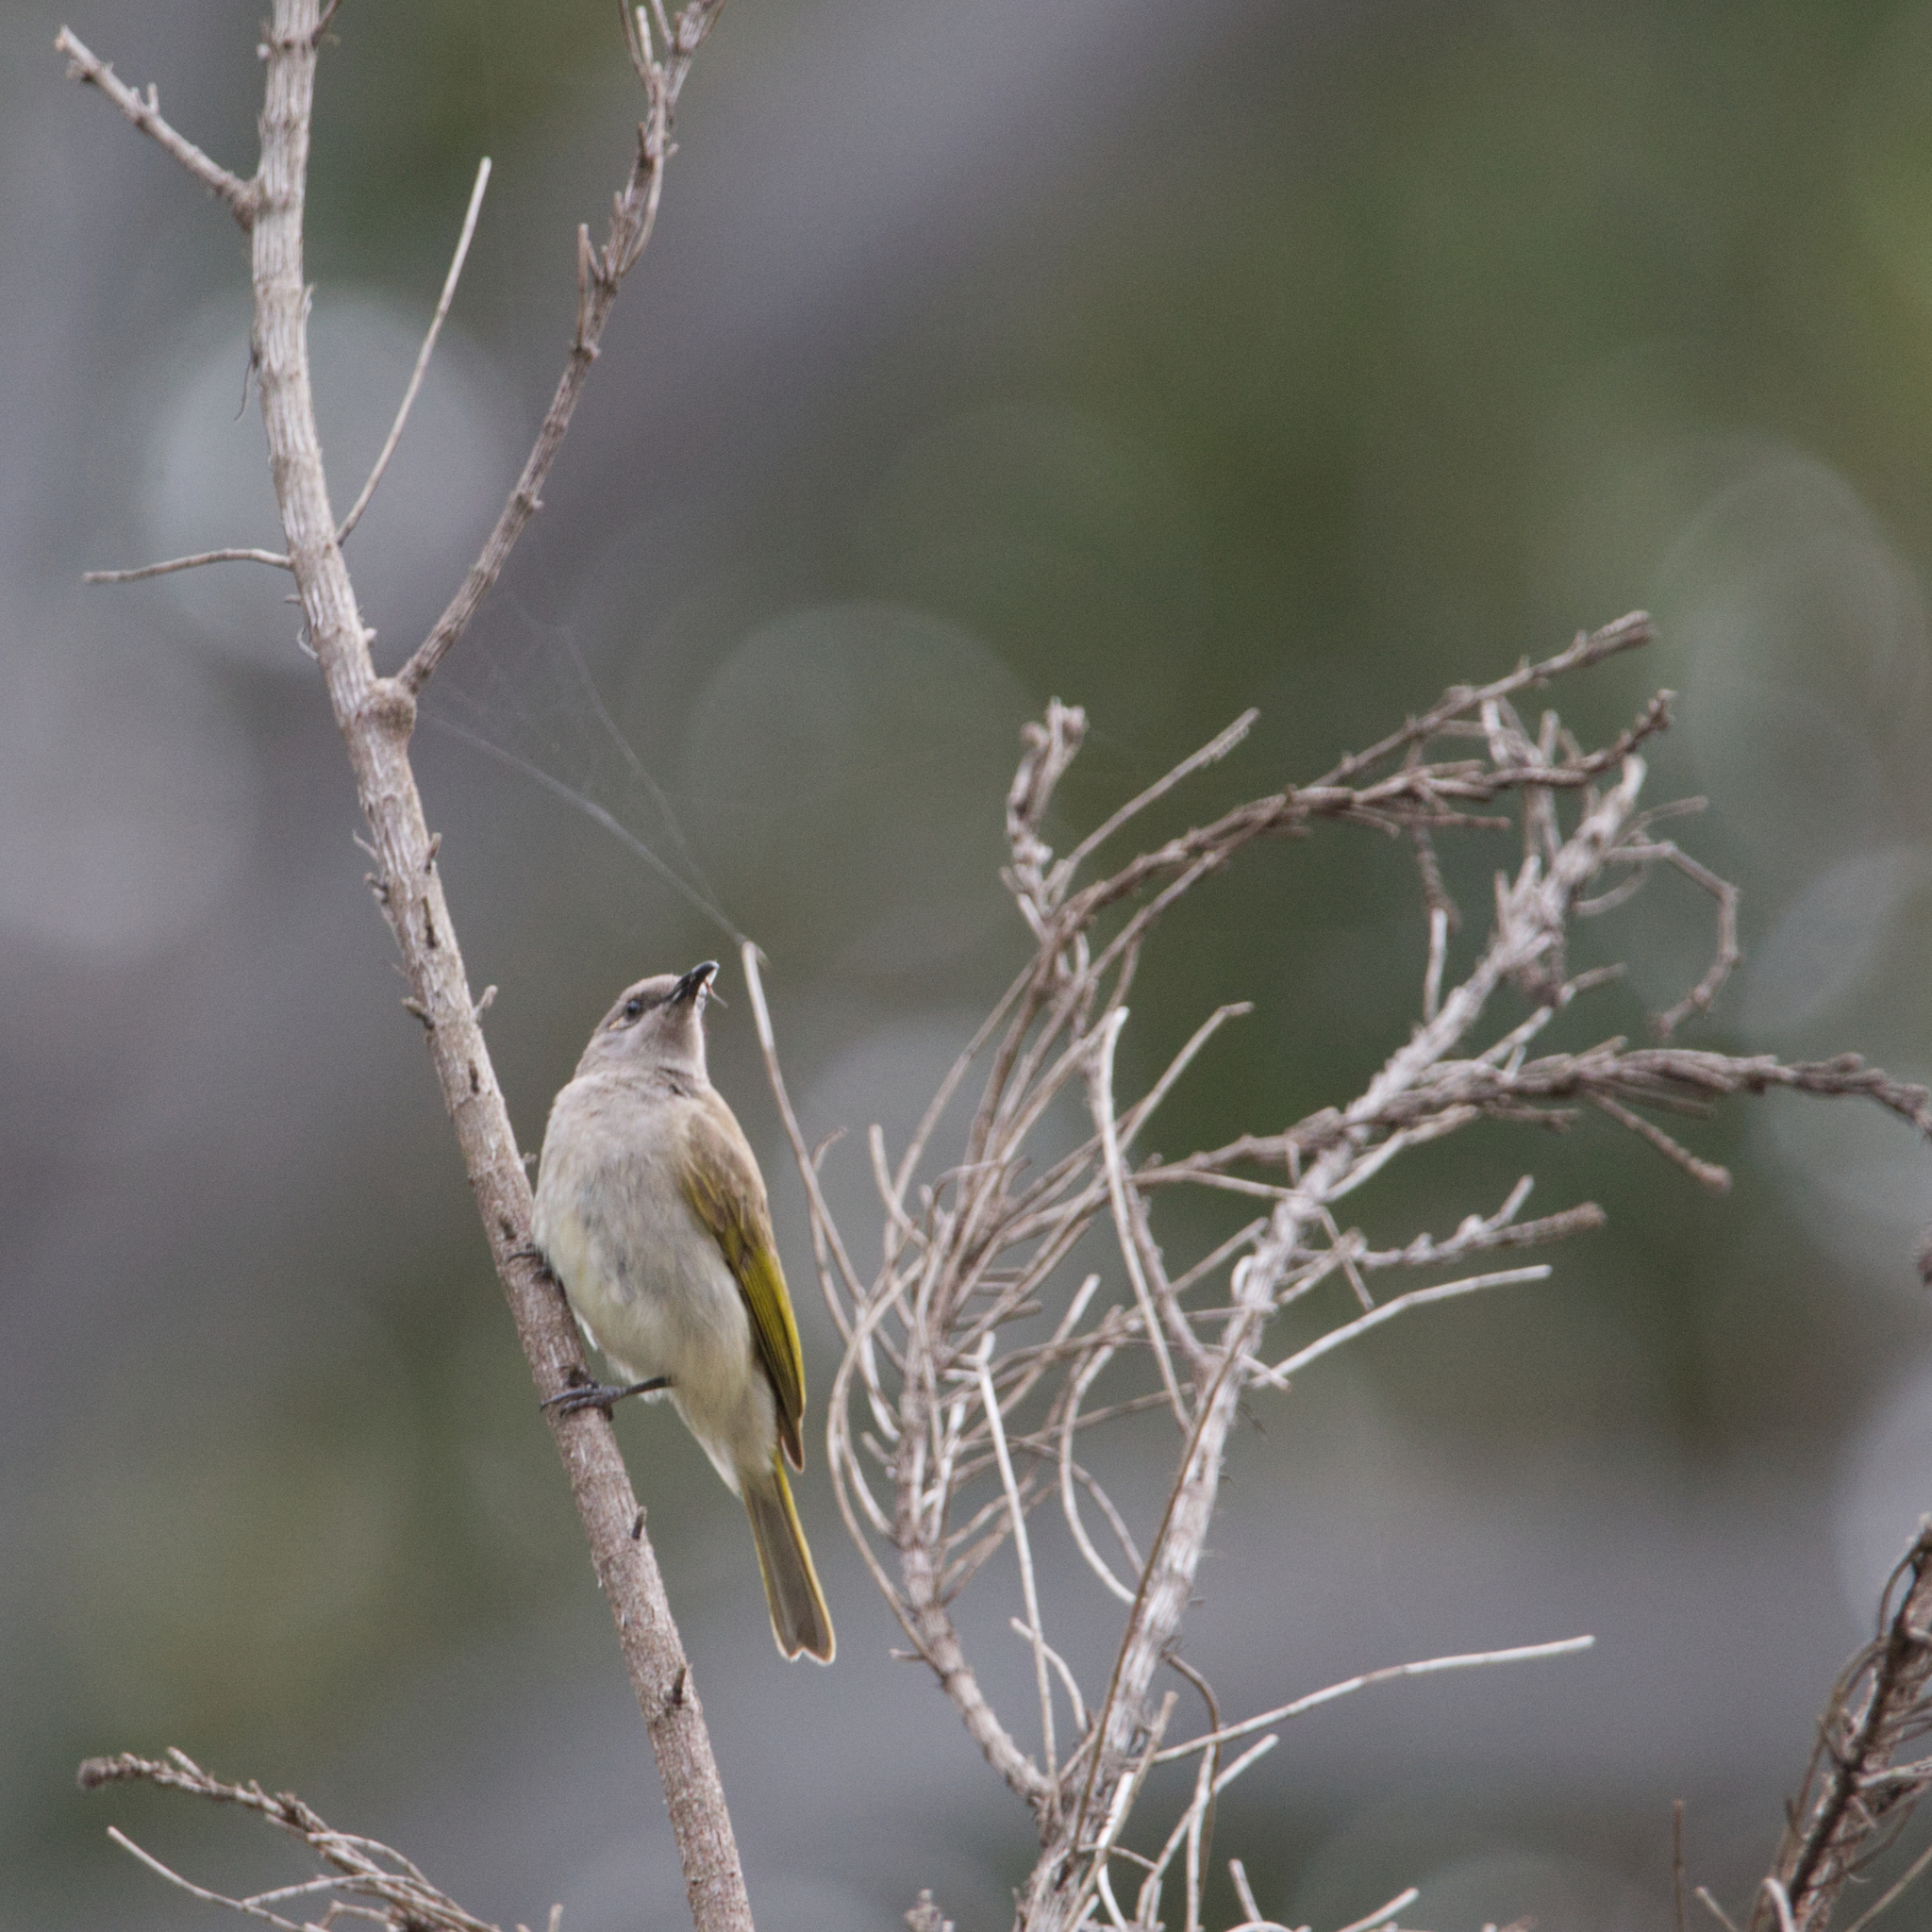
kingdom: Animalia
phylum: Chordata
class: Aves
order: Passeriformes
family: Meliphagidae
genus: Lichmera
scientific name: Lichmera indistincta
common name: Brown honeyeater
